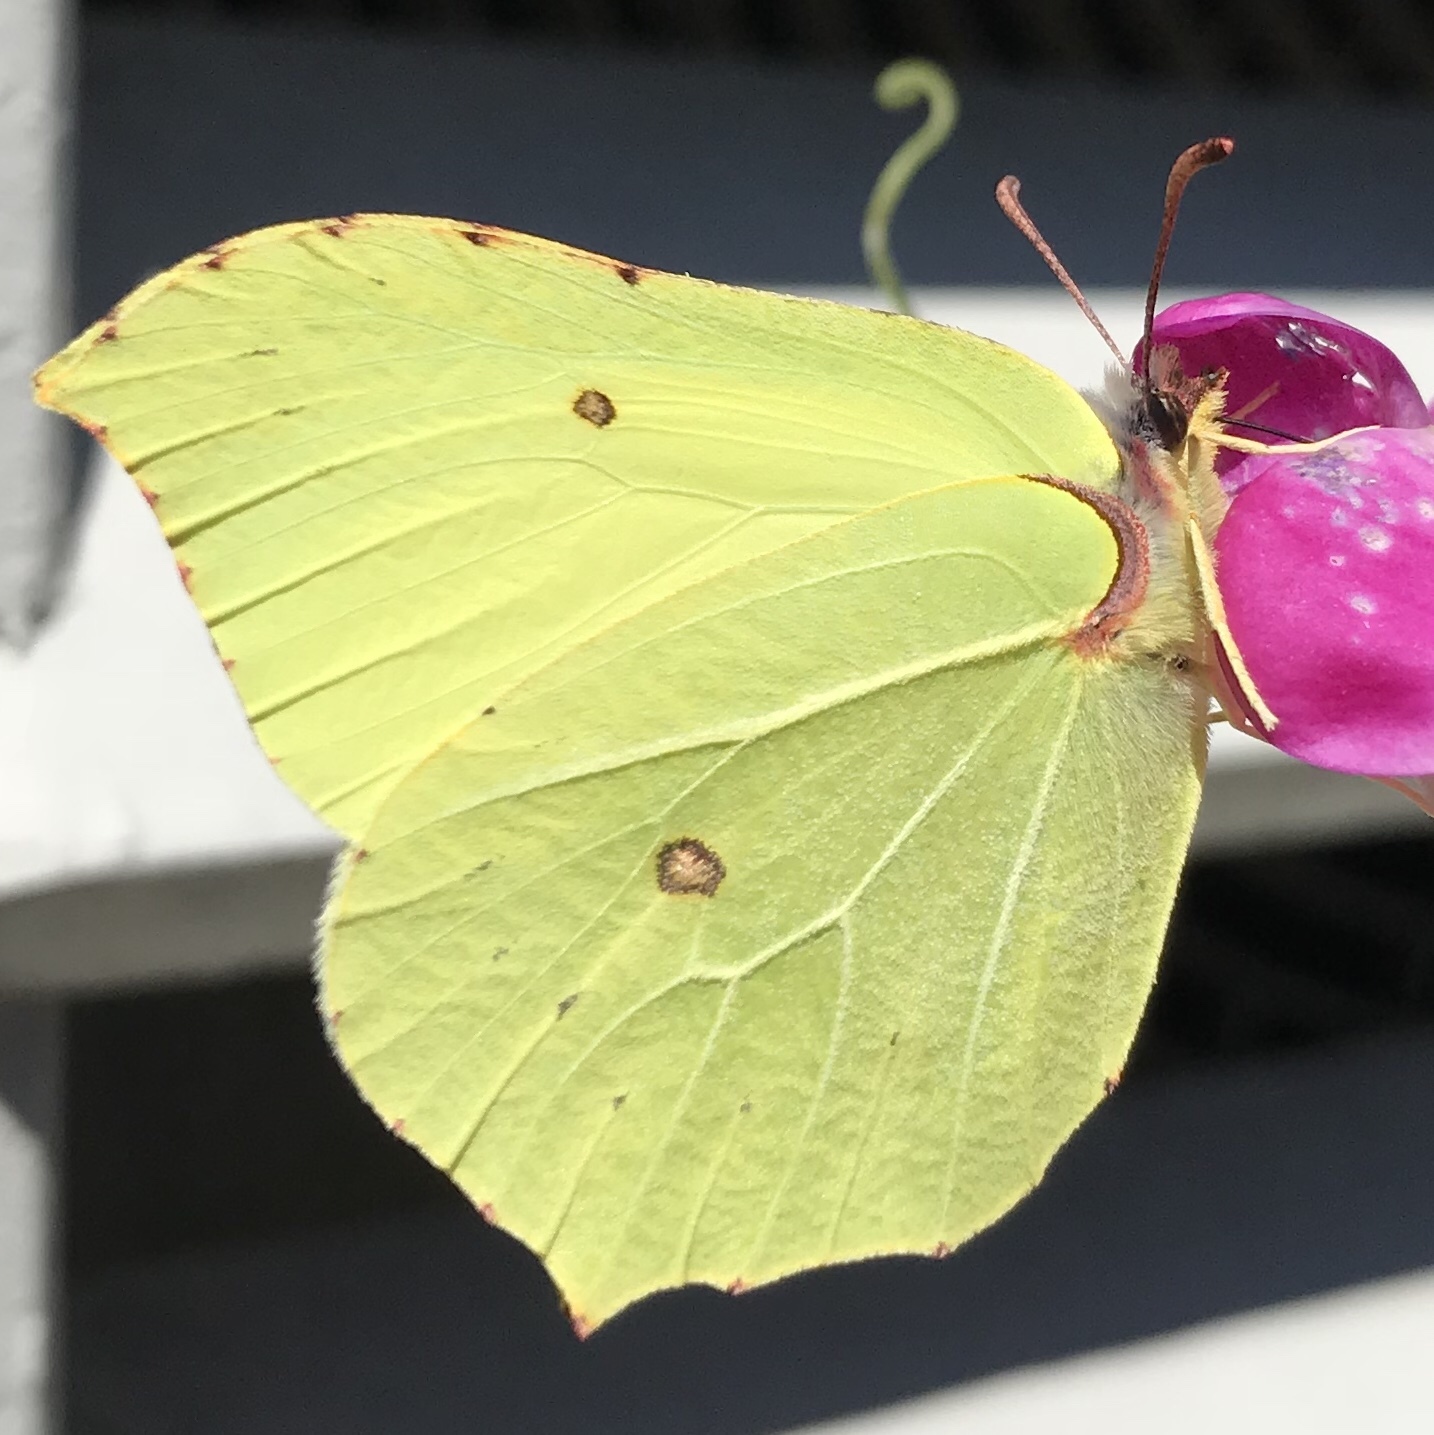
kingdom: Animalia
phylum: Arthropoda
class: Insecta
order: Lepidoptera
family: Pieridae
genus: Gonepteryx
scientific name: Gonepteryx rhamni
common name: Brimstone
